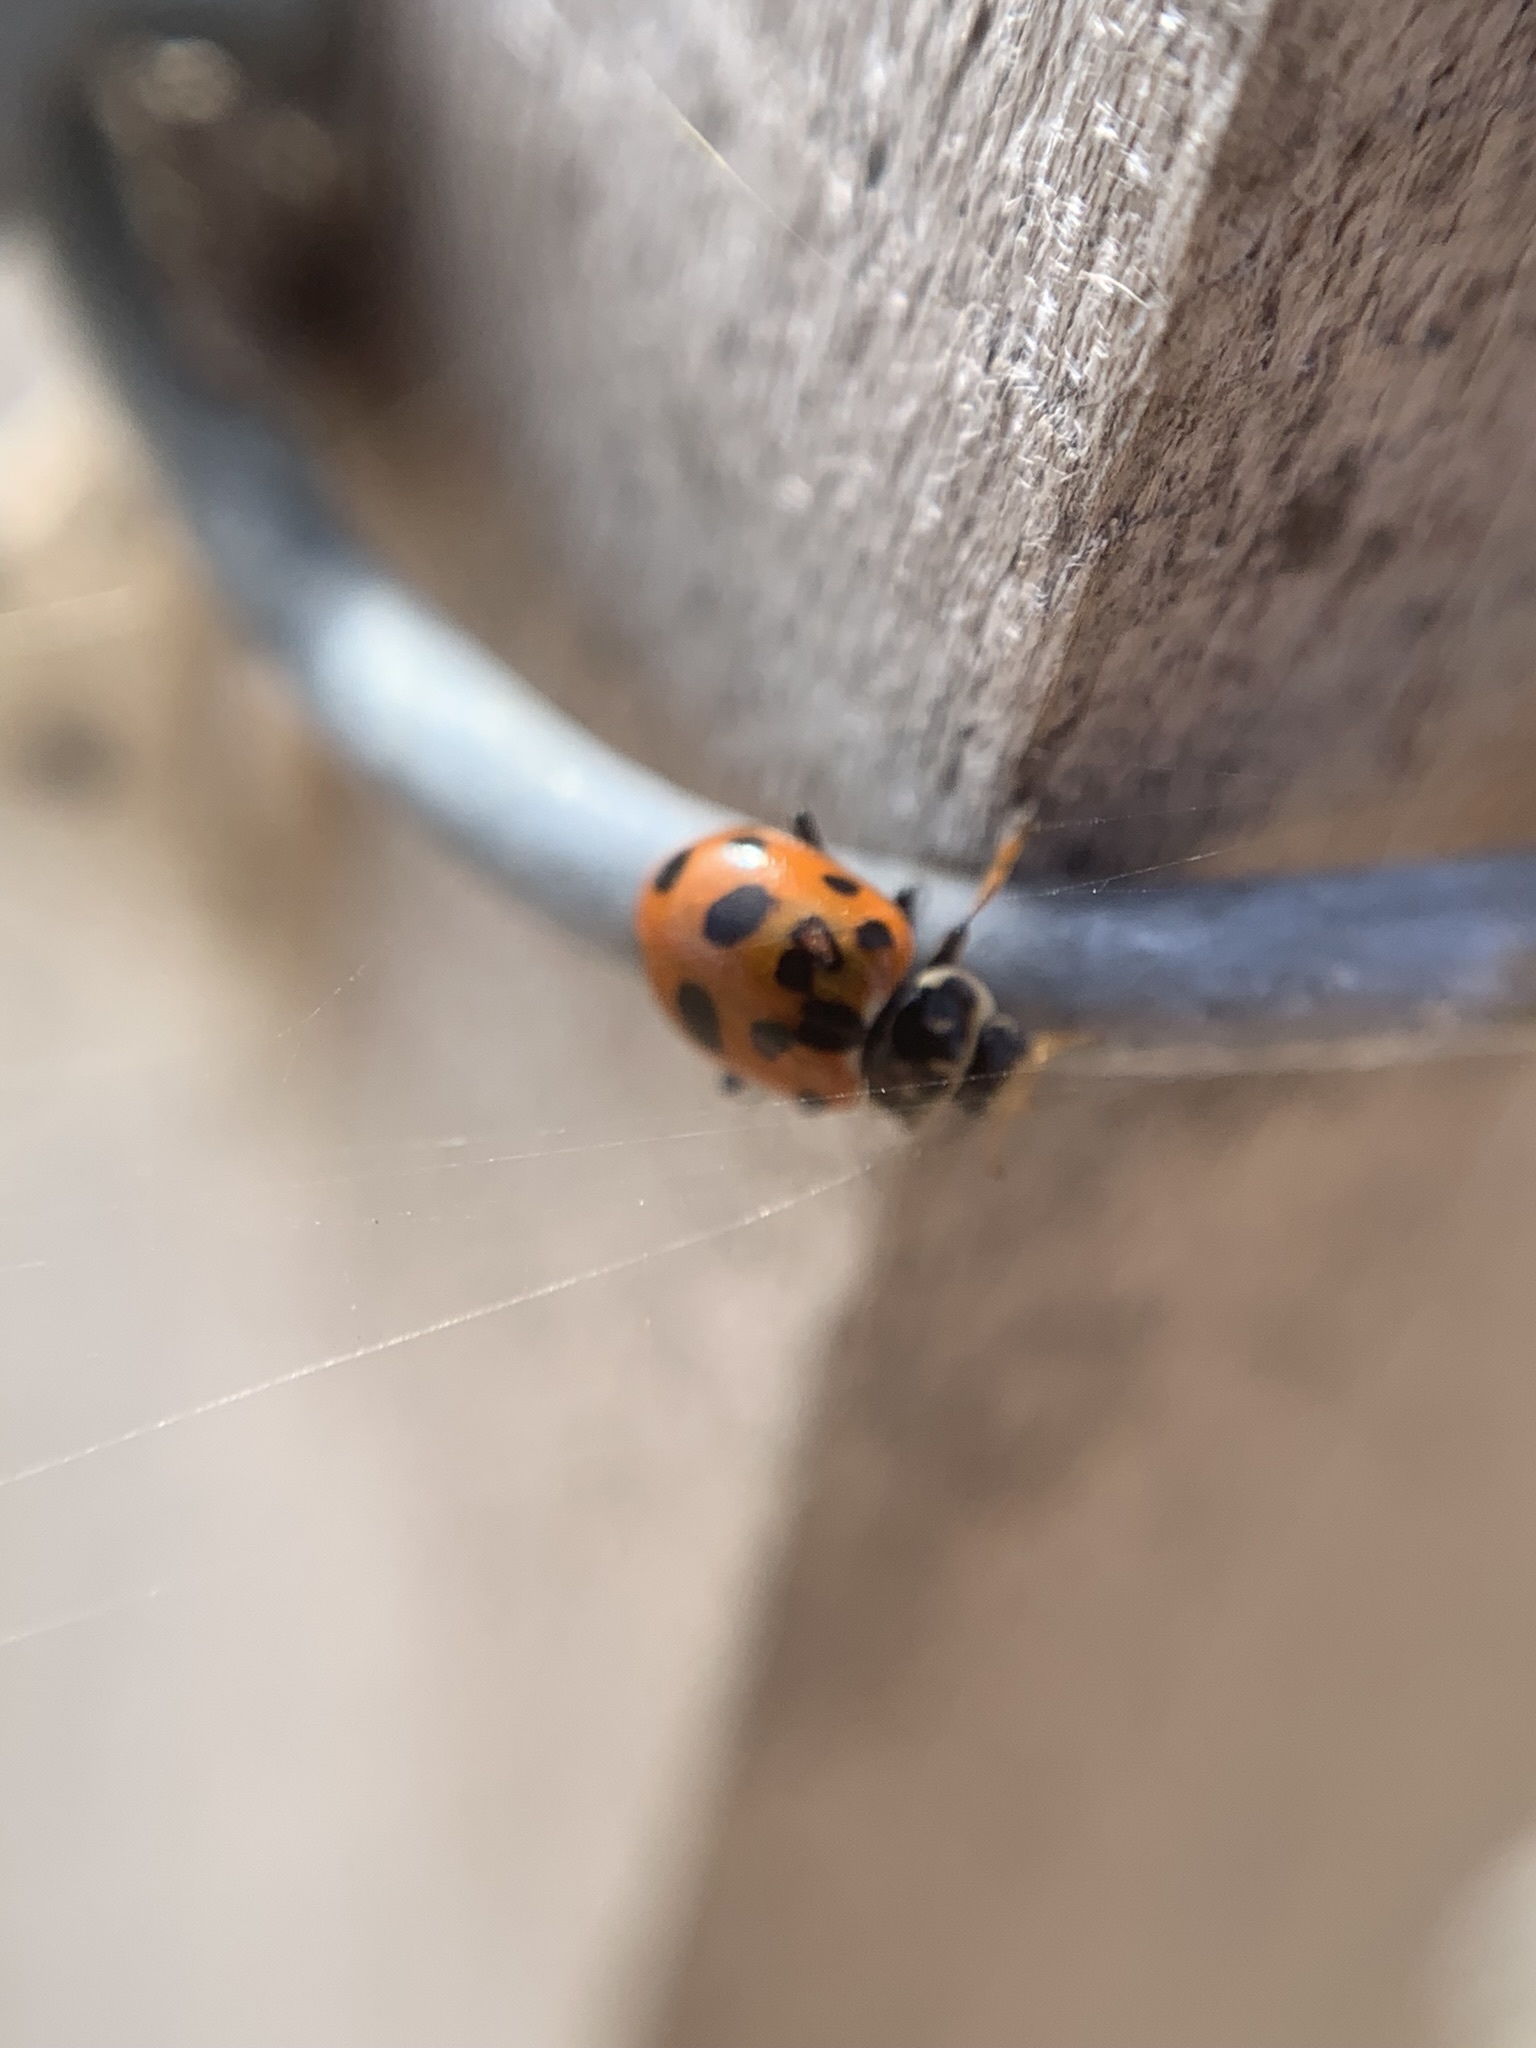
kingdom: Animalia
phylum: Arthropoda
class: Insecta
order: Coleoptera
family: Coccinellidae
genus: Hippodamia
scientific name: Hippodamia variegata
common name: Ladybird beetle
